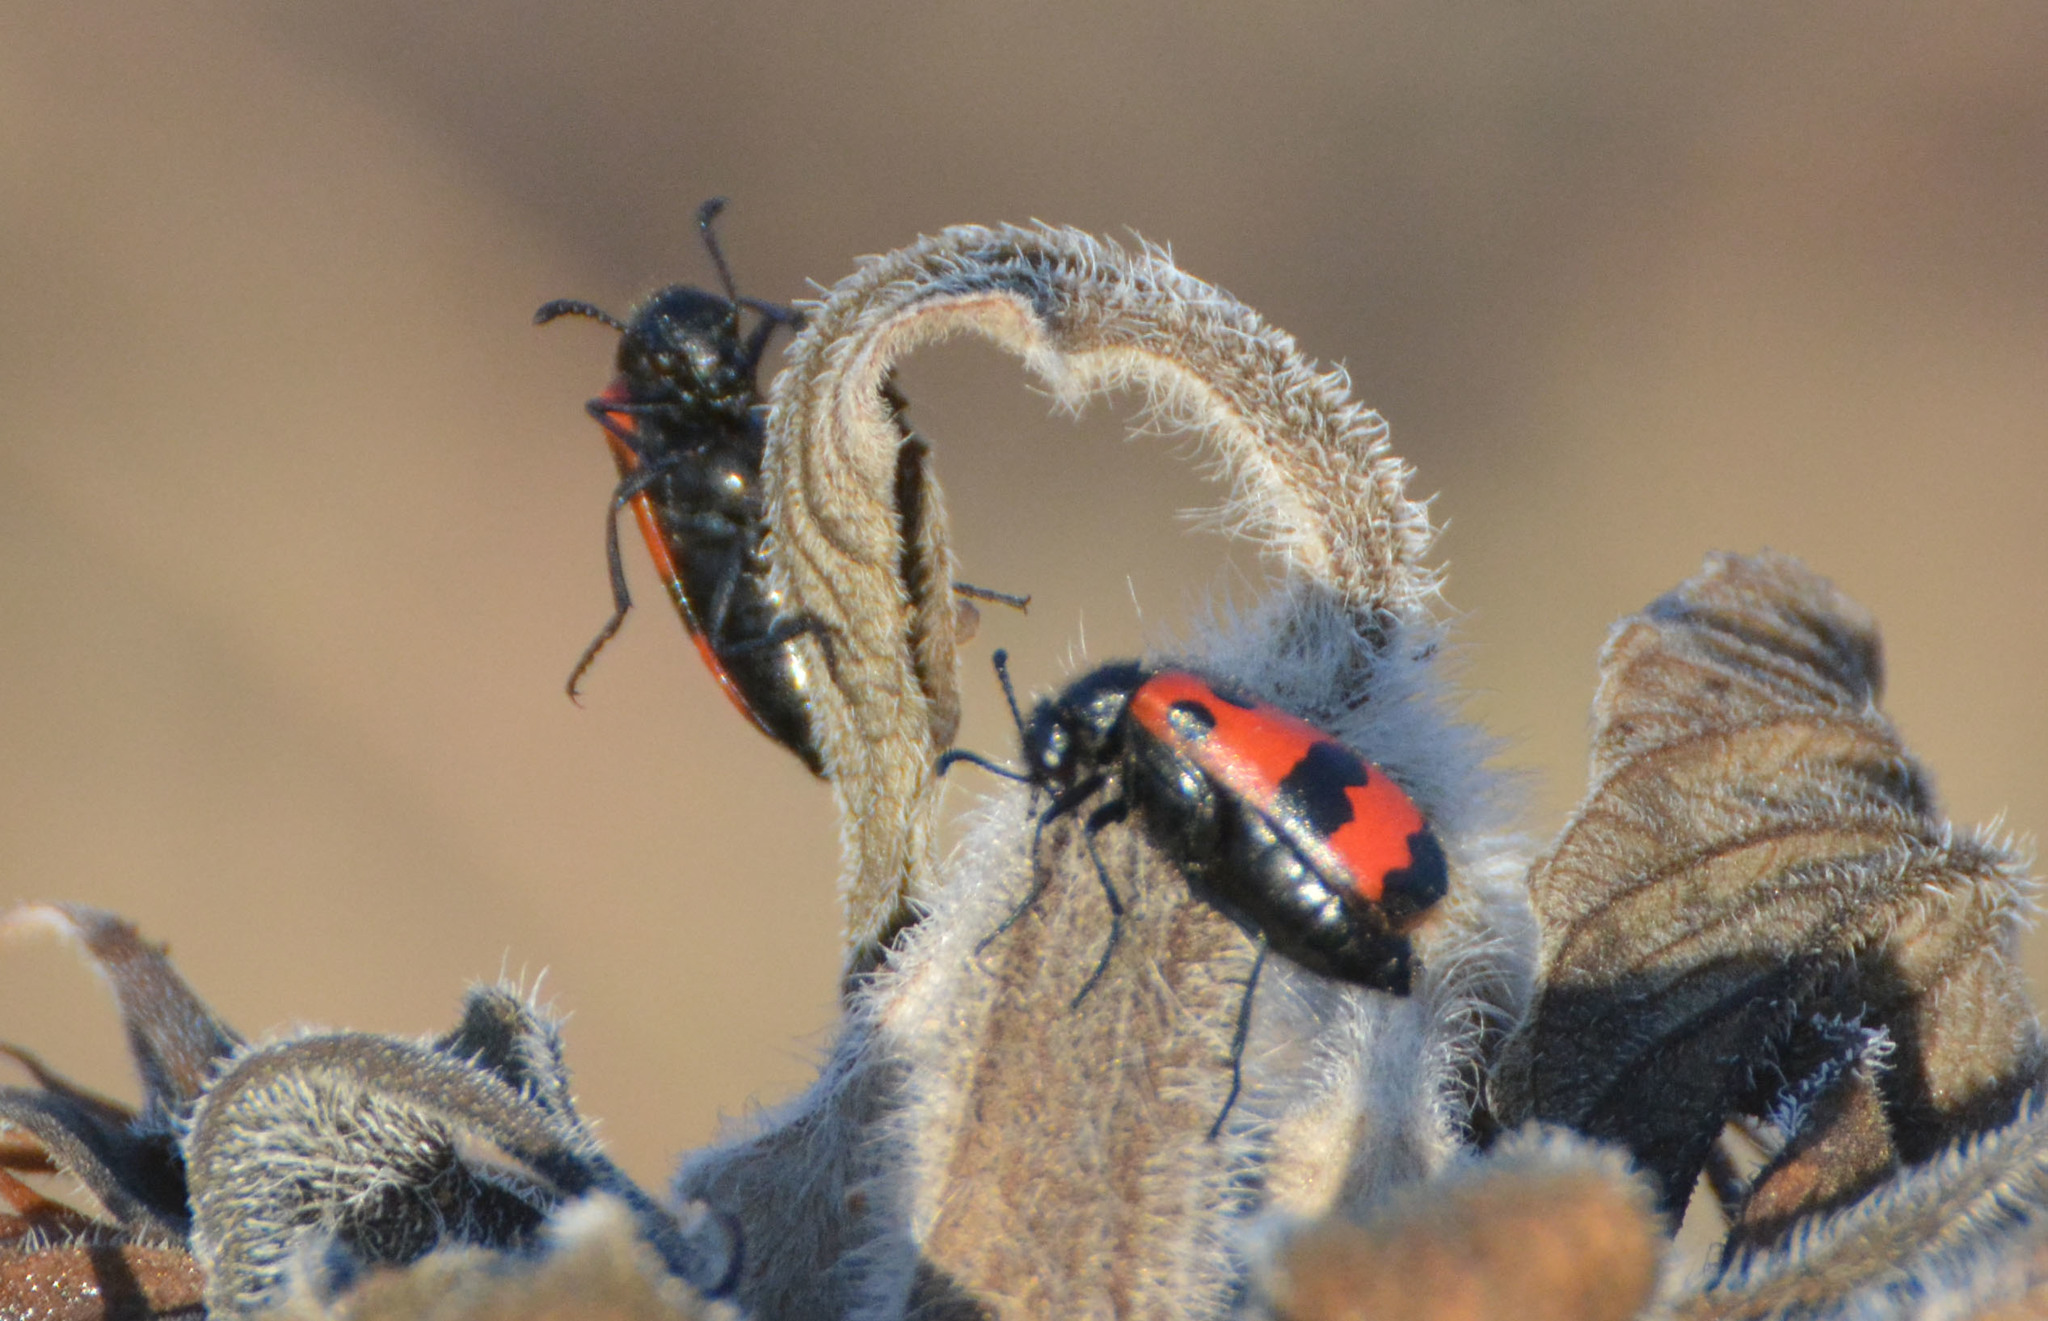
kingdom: Animalia
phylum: Arthropoda
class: Insecta
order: Coleoptera
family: Meloidae
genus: Mylabris
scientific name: Mylabris quadripunctata
